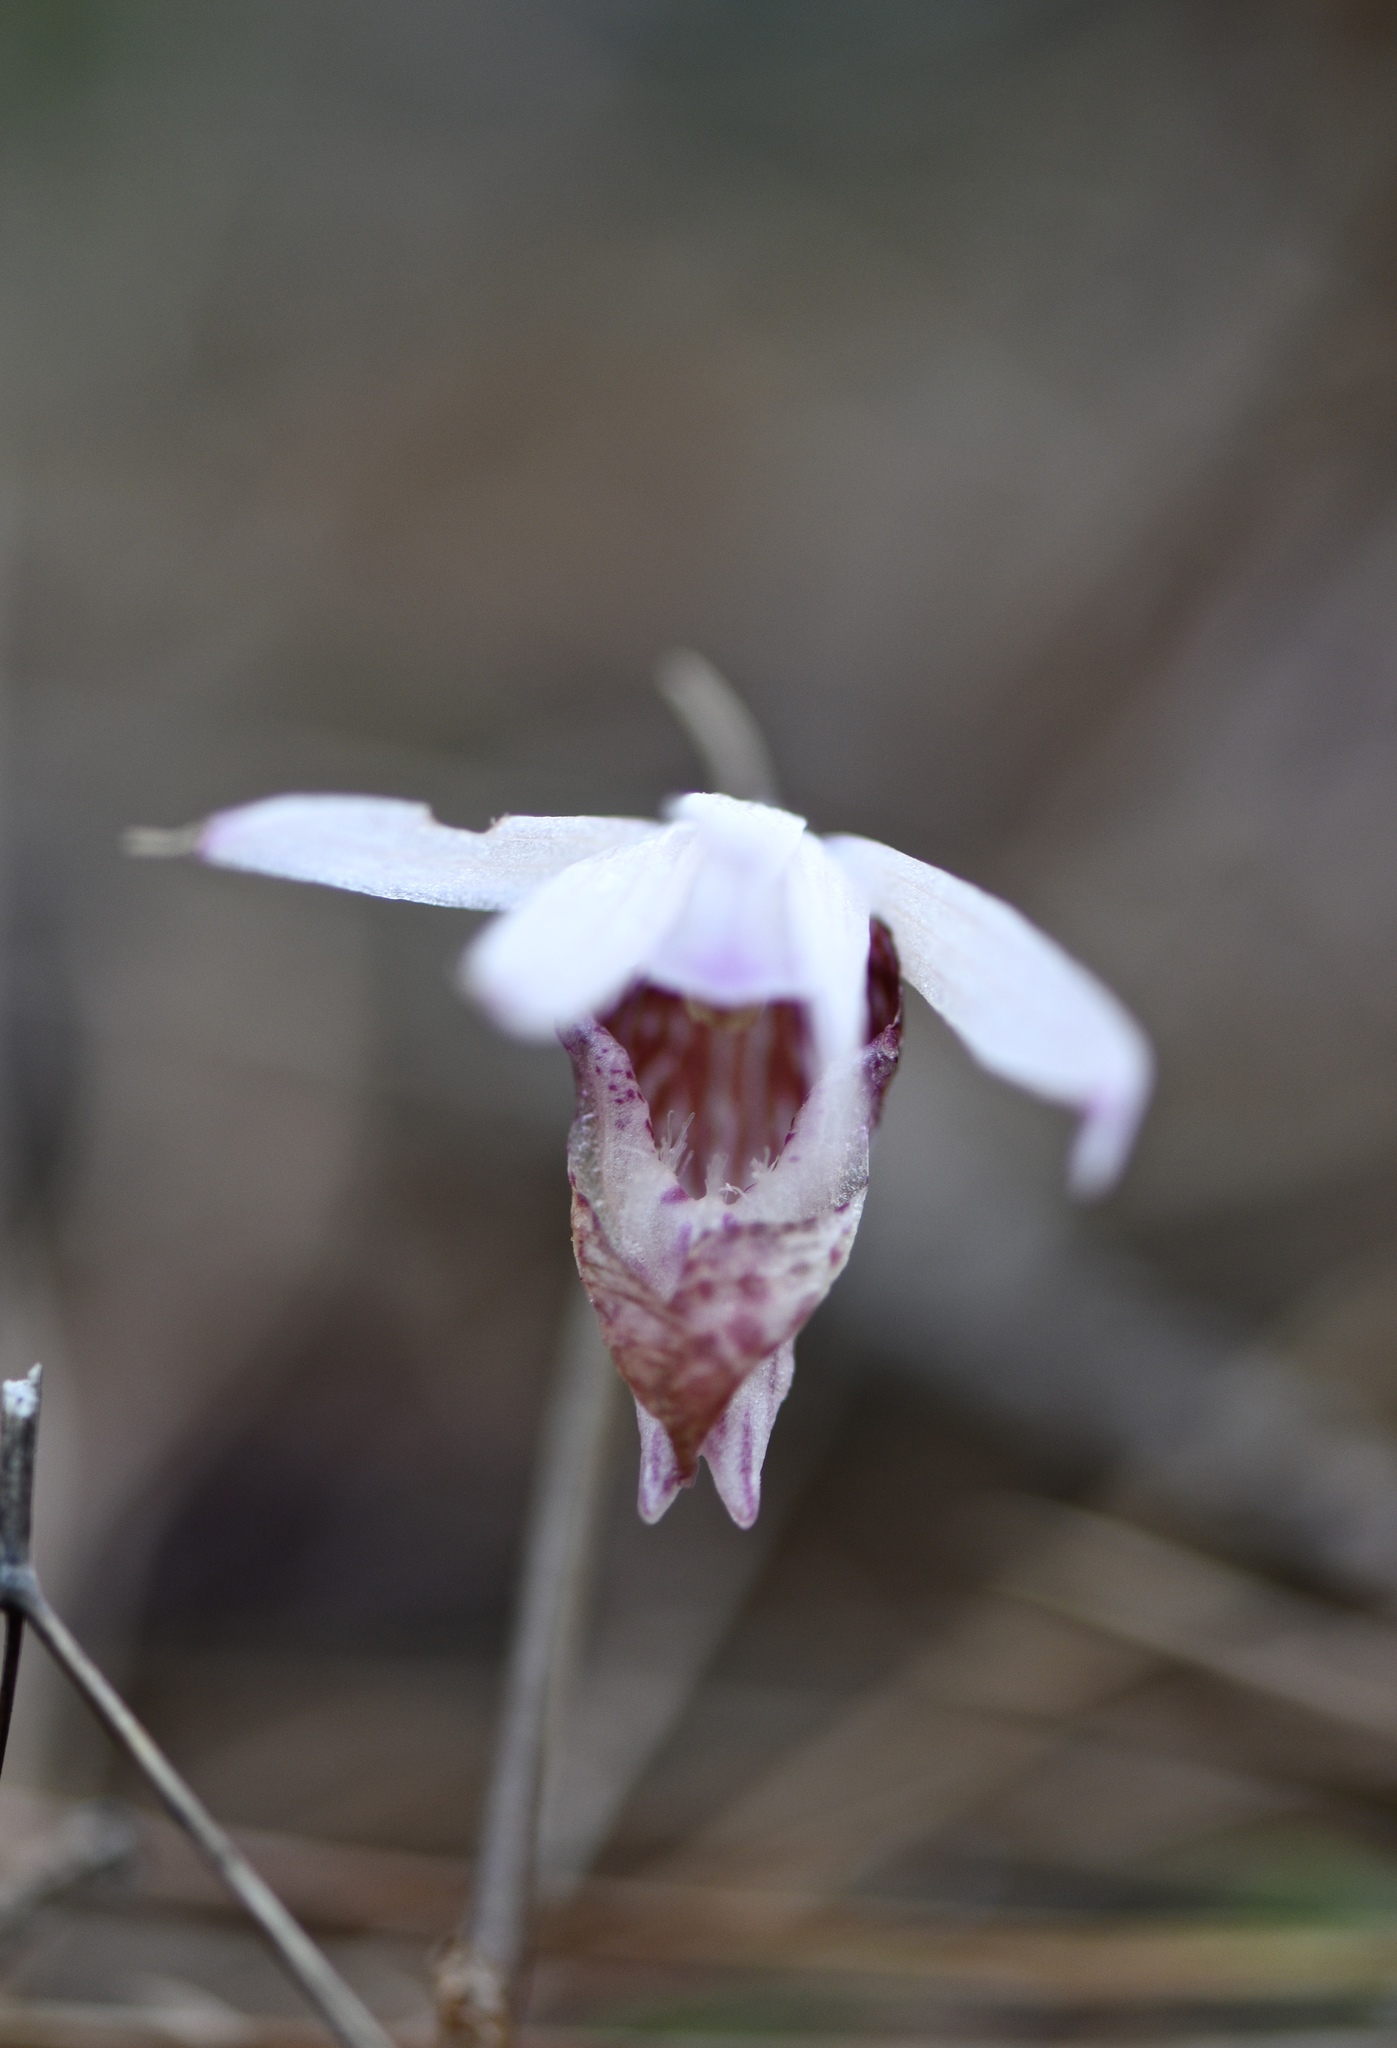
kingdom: Plantae
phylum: Tracheophyta
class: Liliopsida
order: Asparagales
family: Orchidaceae
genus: Calypso
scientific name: Calypso bulbosa
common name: Calypso
